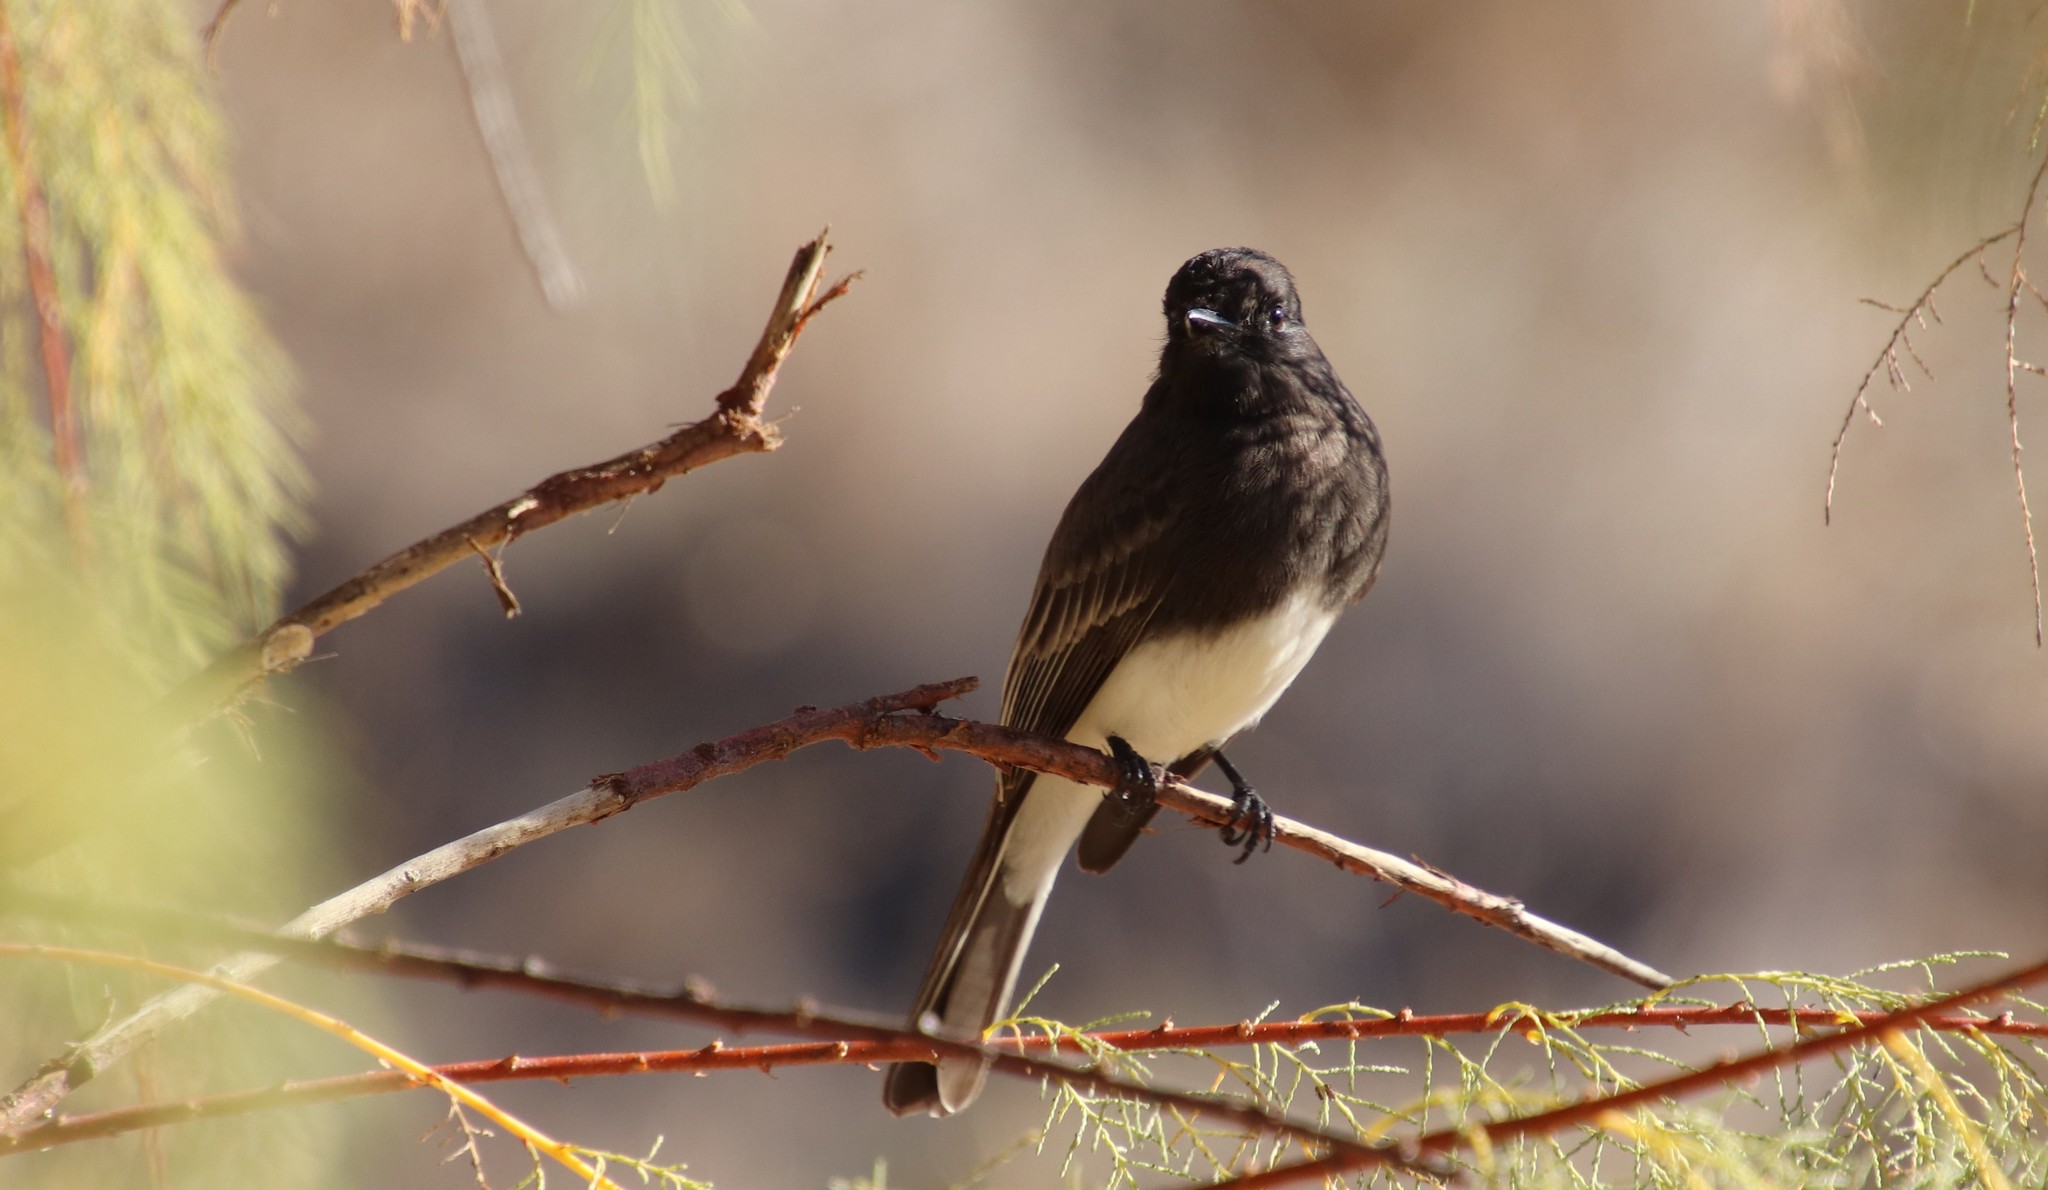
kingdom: Animalia
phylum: Chordata
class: Aves
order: Passeriformes
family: Tyrannidae
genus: Sayornis
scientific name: Sayornis nigricans
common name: Black phoebe
